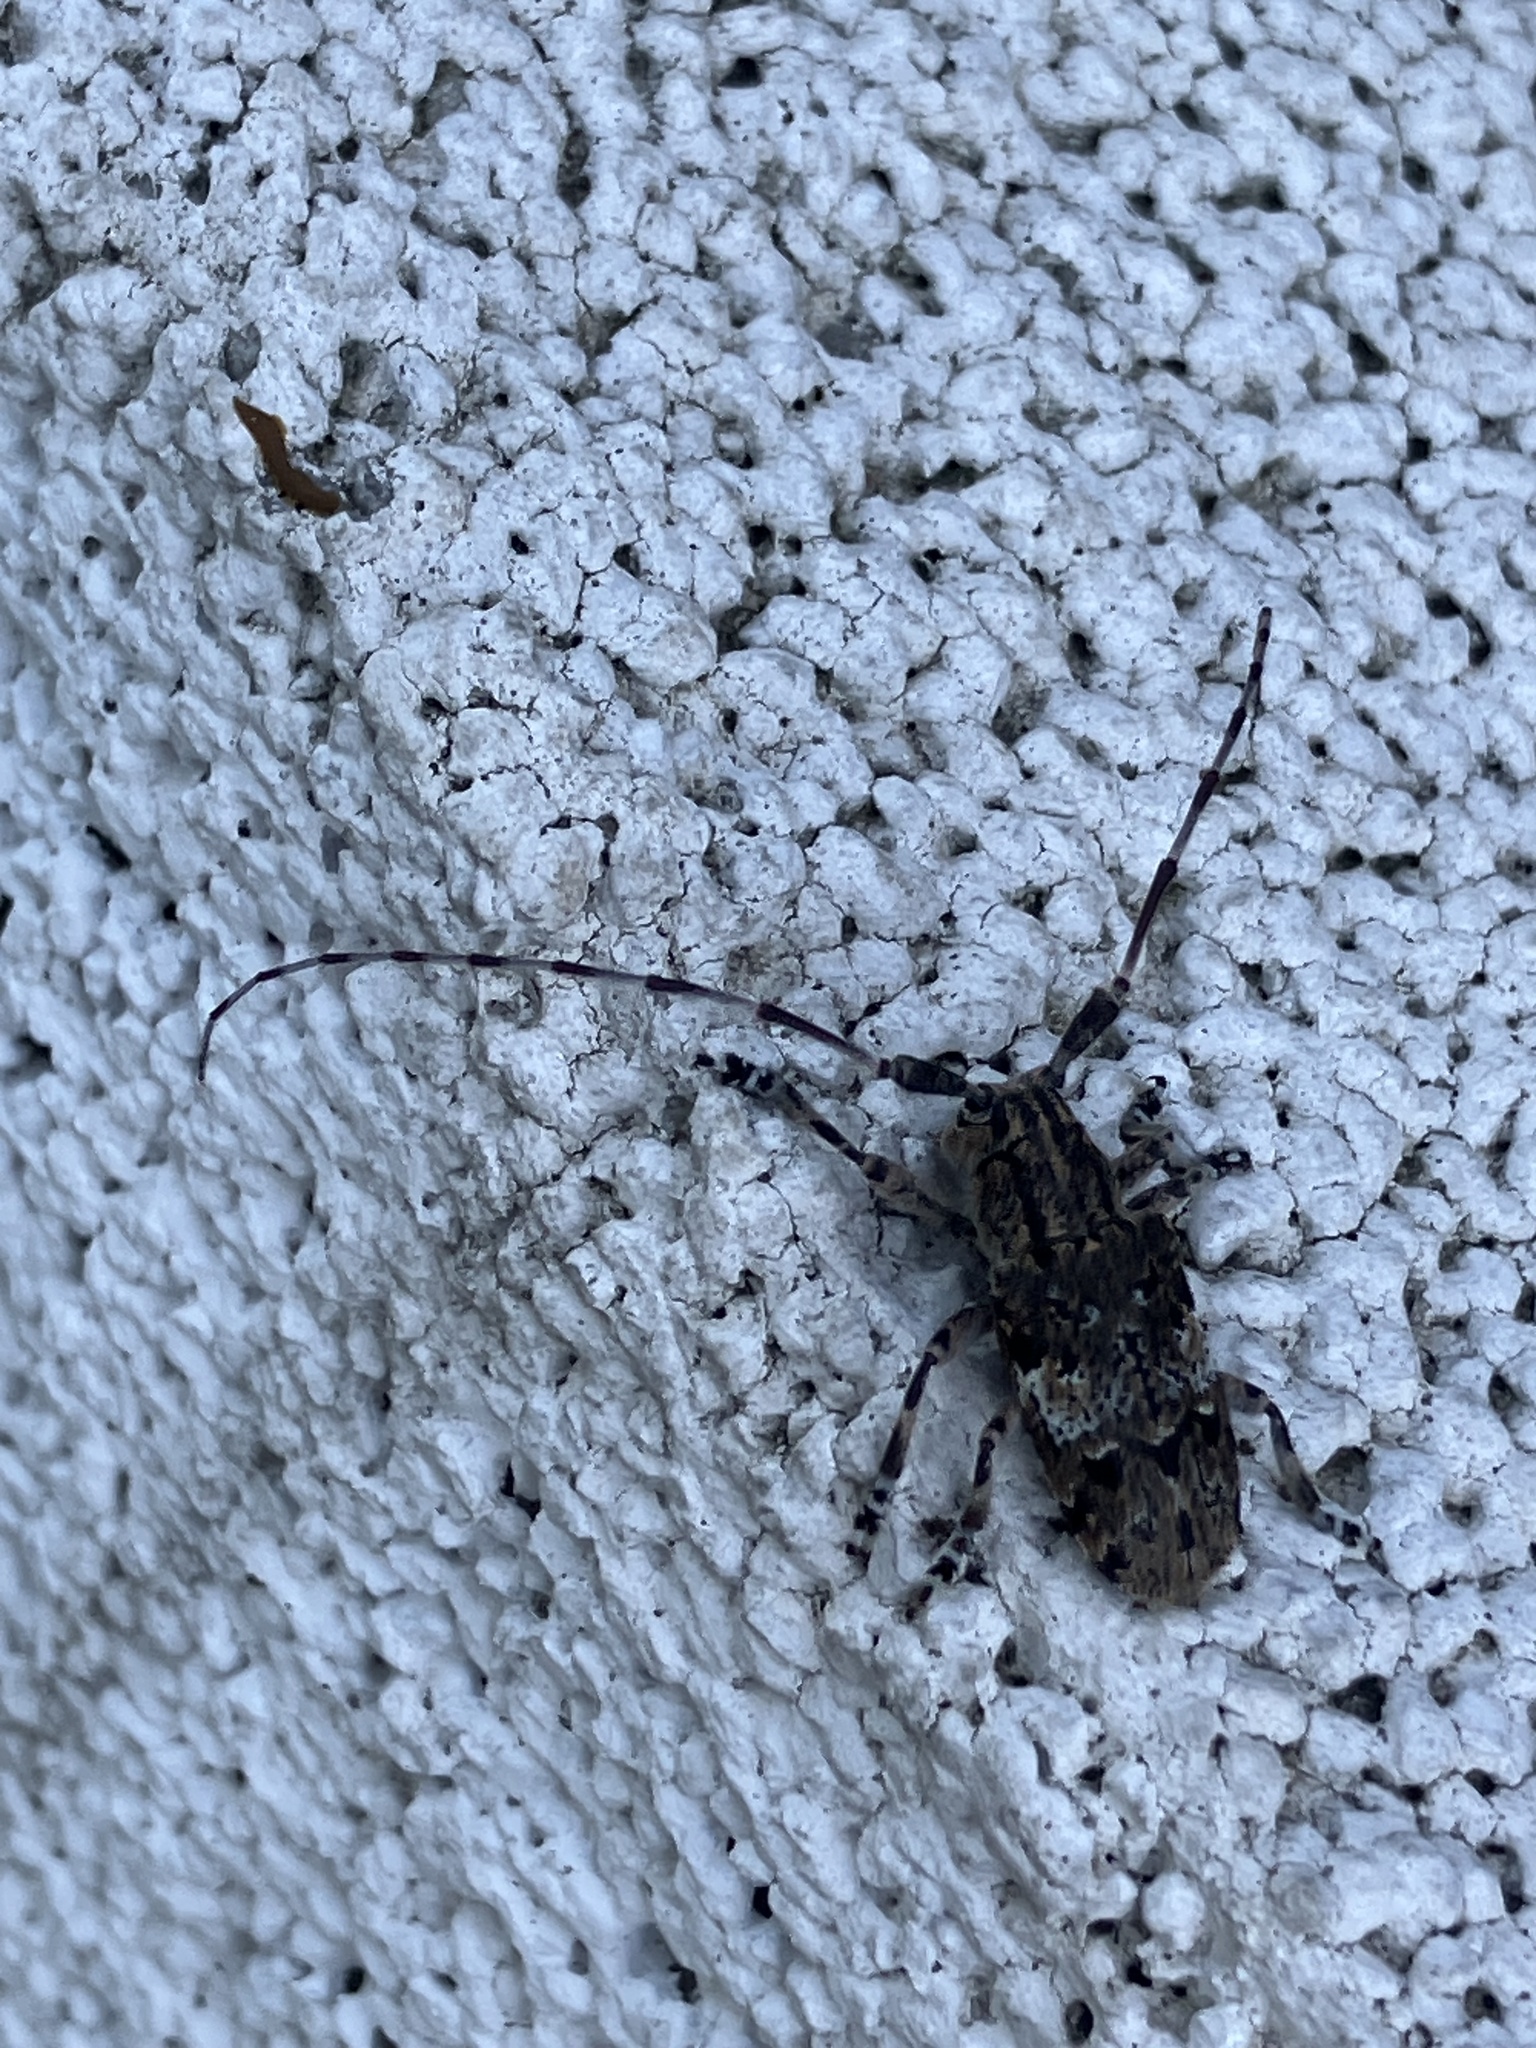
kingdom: Animalia
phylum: Arthropoda
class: Insecta
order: Coleoptera
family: Cerambycidae
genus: Mesosa
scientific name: Mesosa nebulosa
